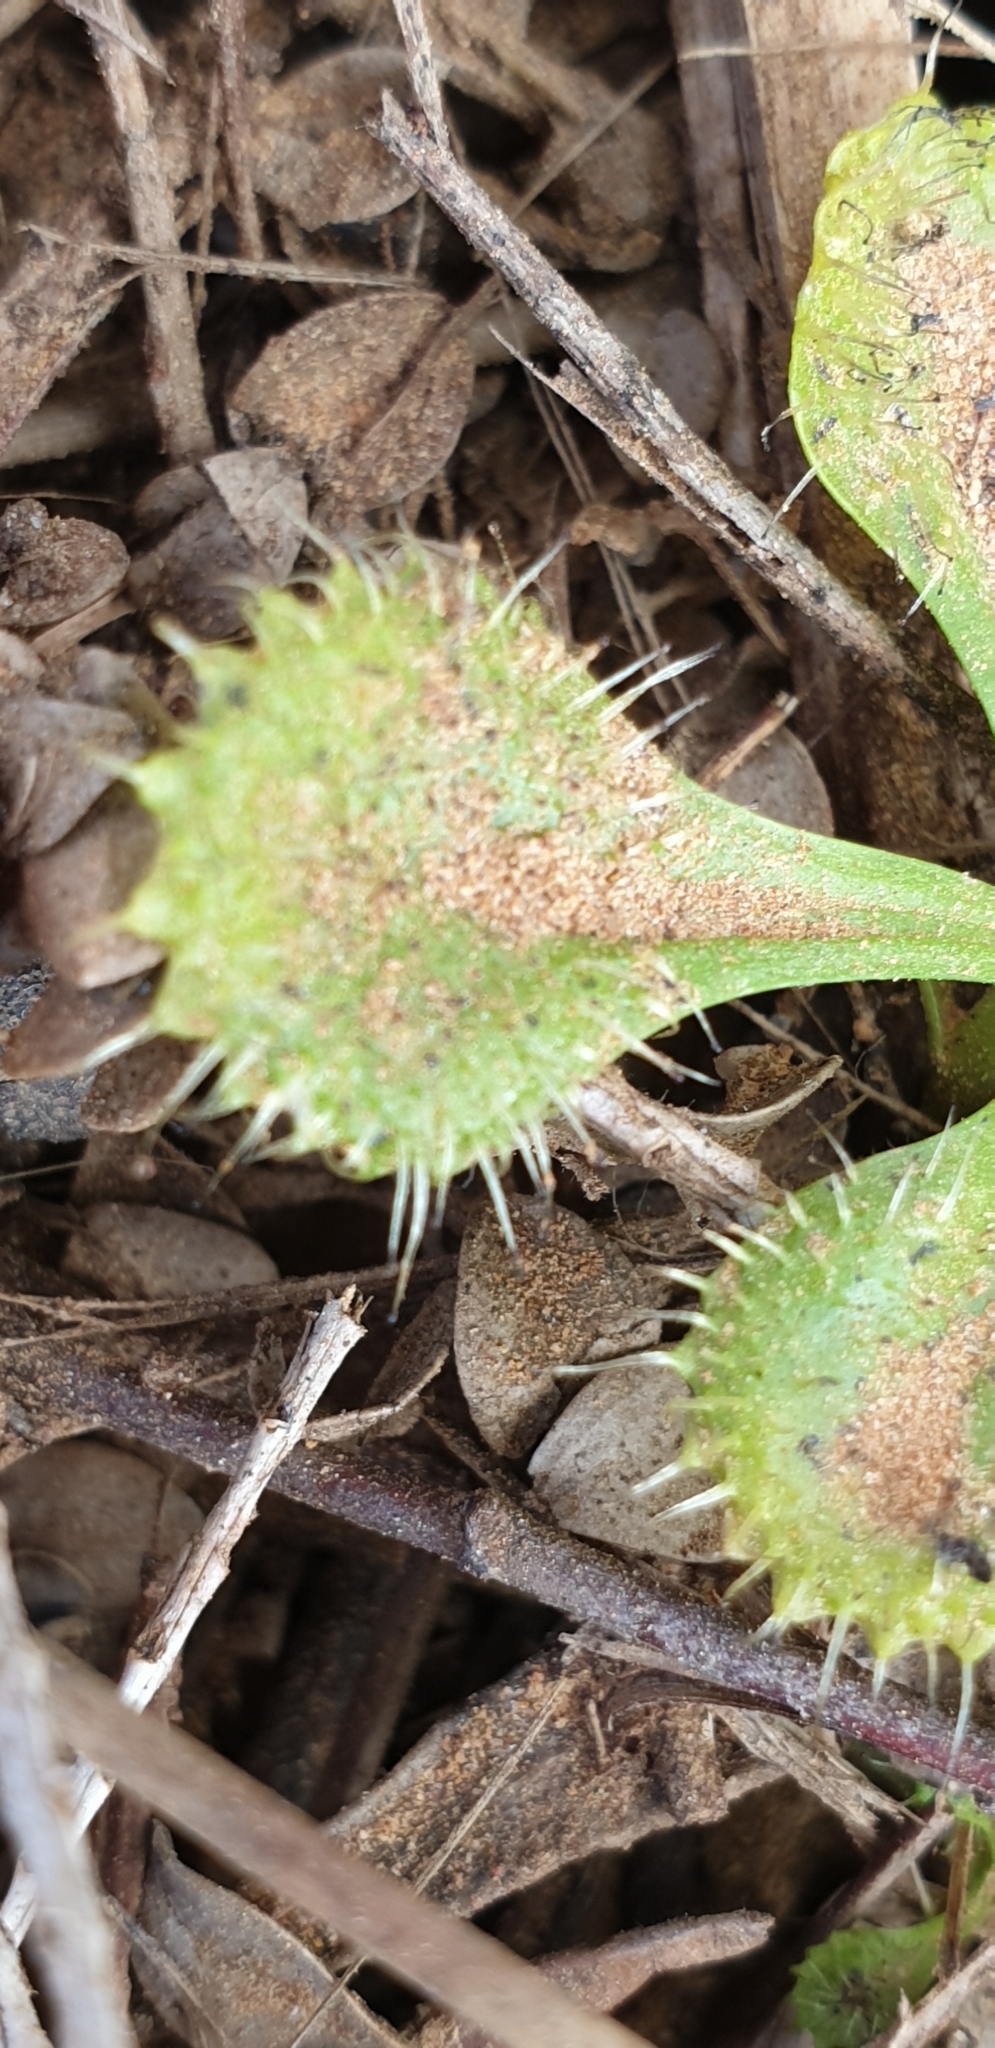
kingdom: Plantae
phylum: Tracheophyta
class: Magnoliopsida
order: Caryophyllales
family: Droseraceae
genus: Drosera
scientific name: Drosera schmutzii
